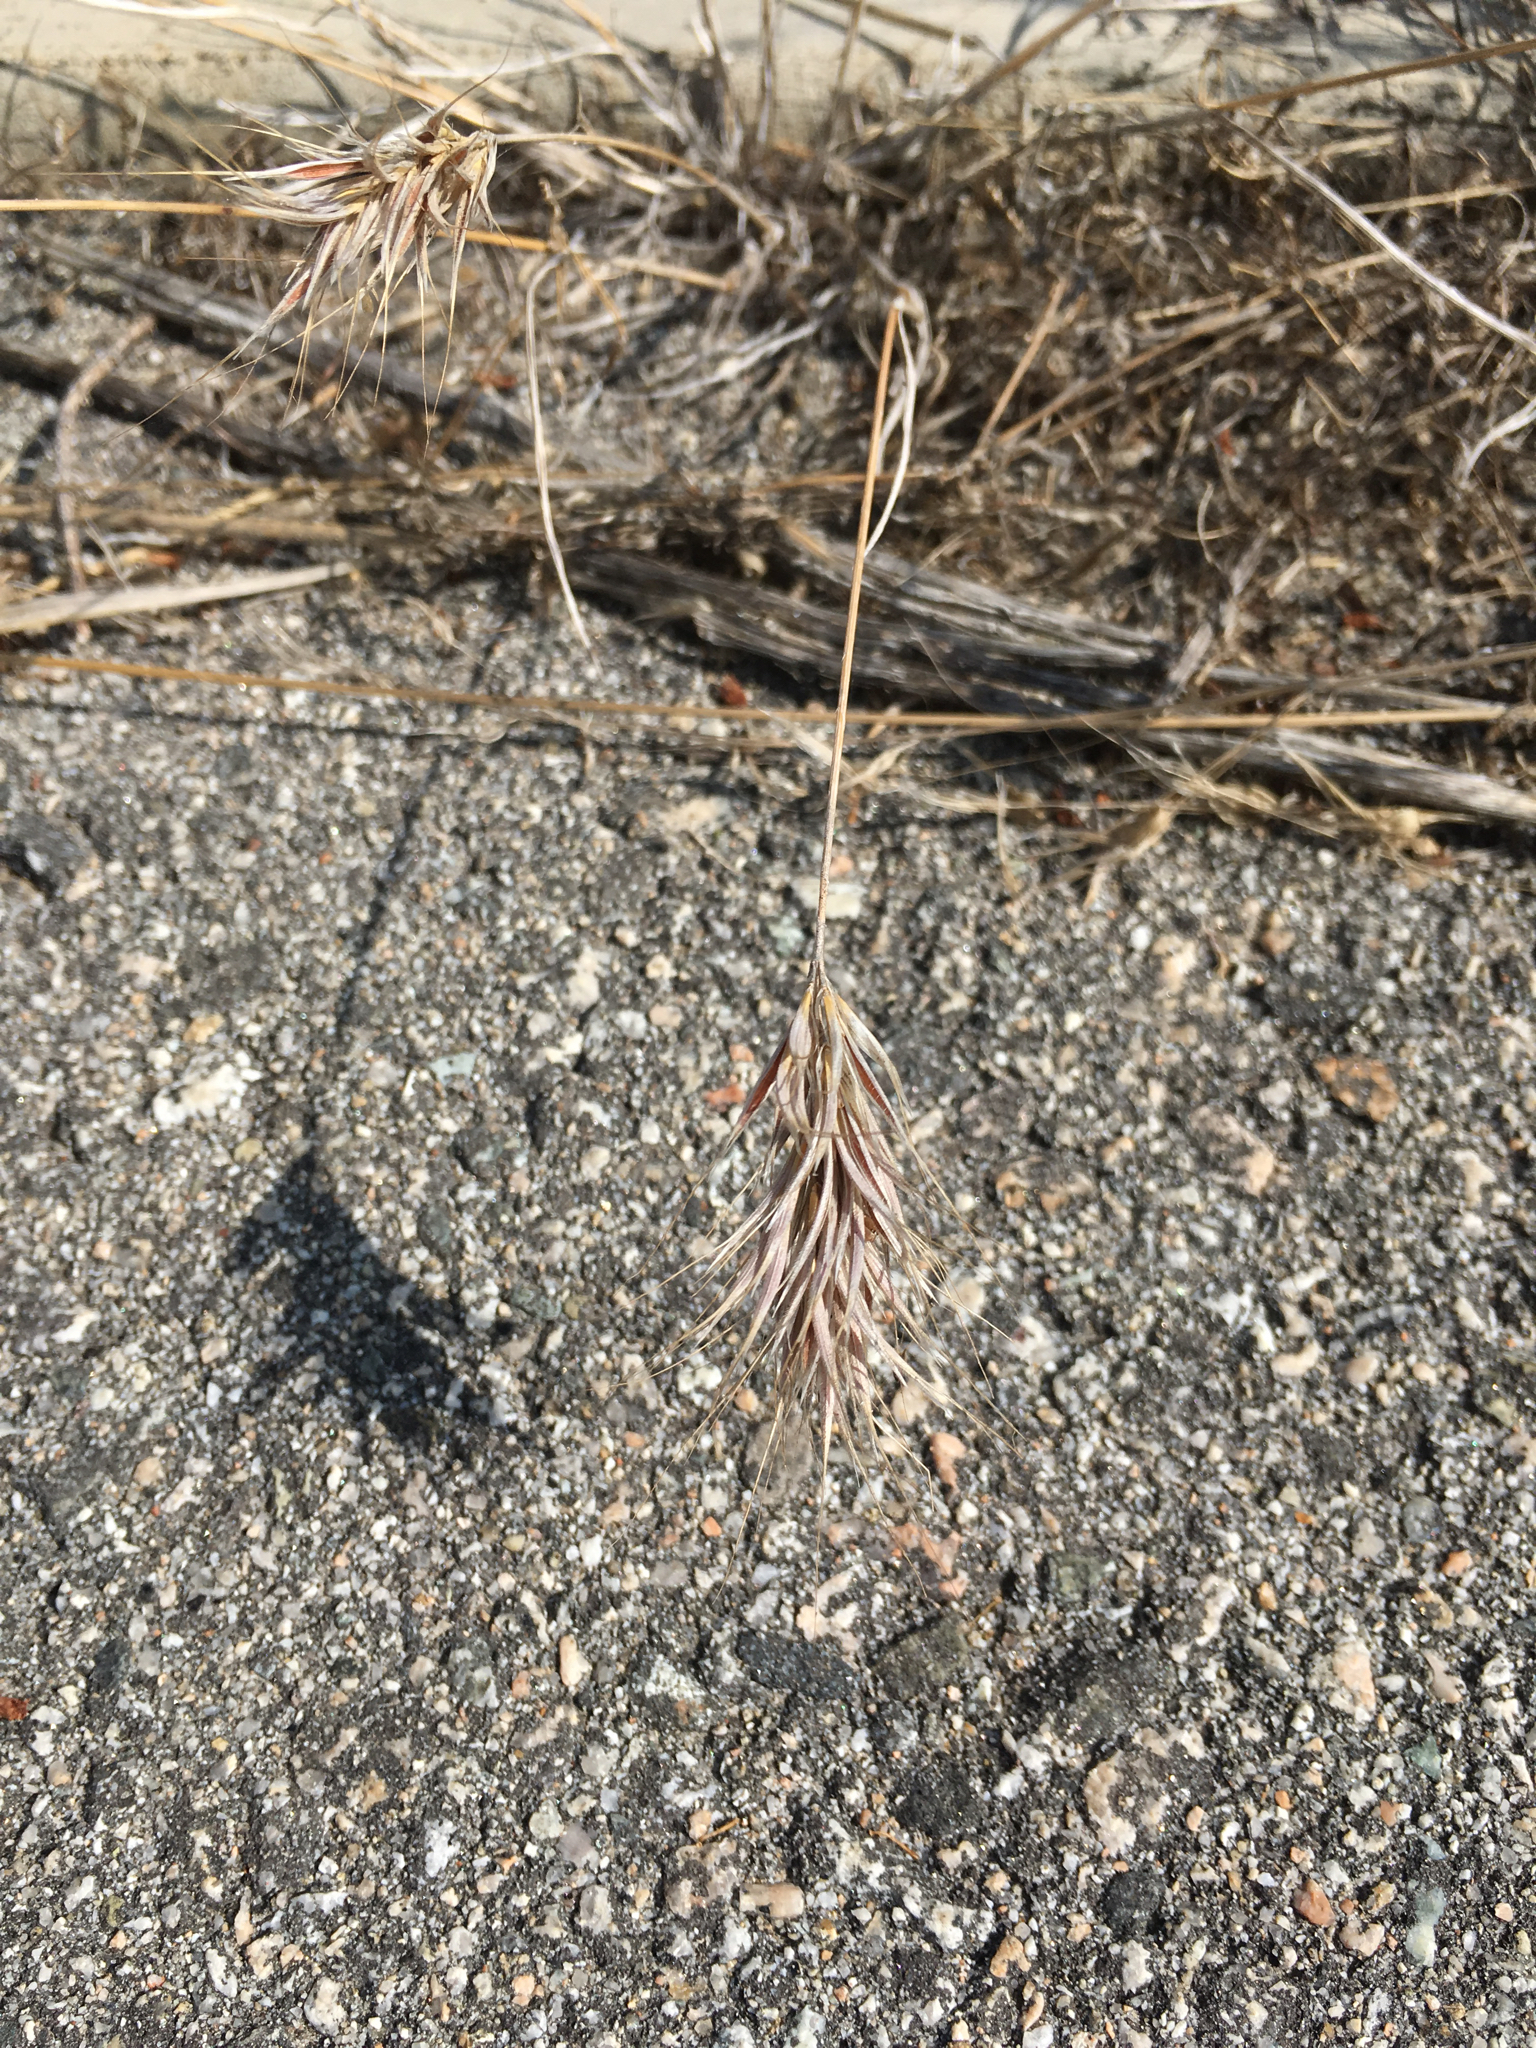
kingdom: Plantae
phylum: Tracheophyta
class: Liliopsida
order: Poales
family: Poaceae
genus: Bromus
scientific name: Bromus madritensis
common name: Compact brome
